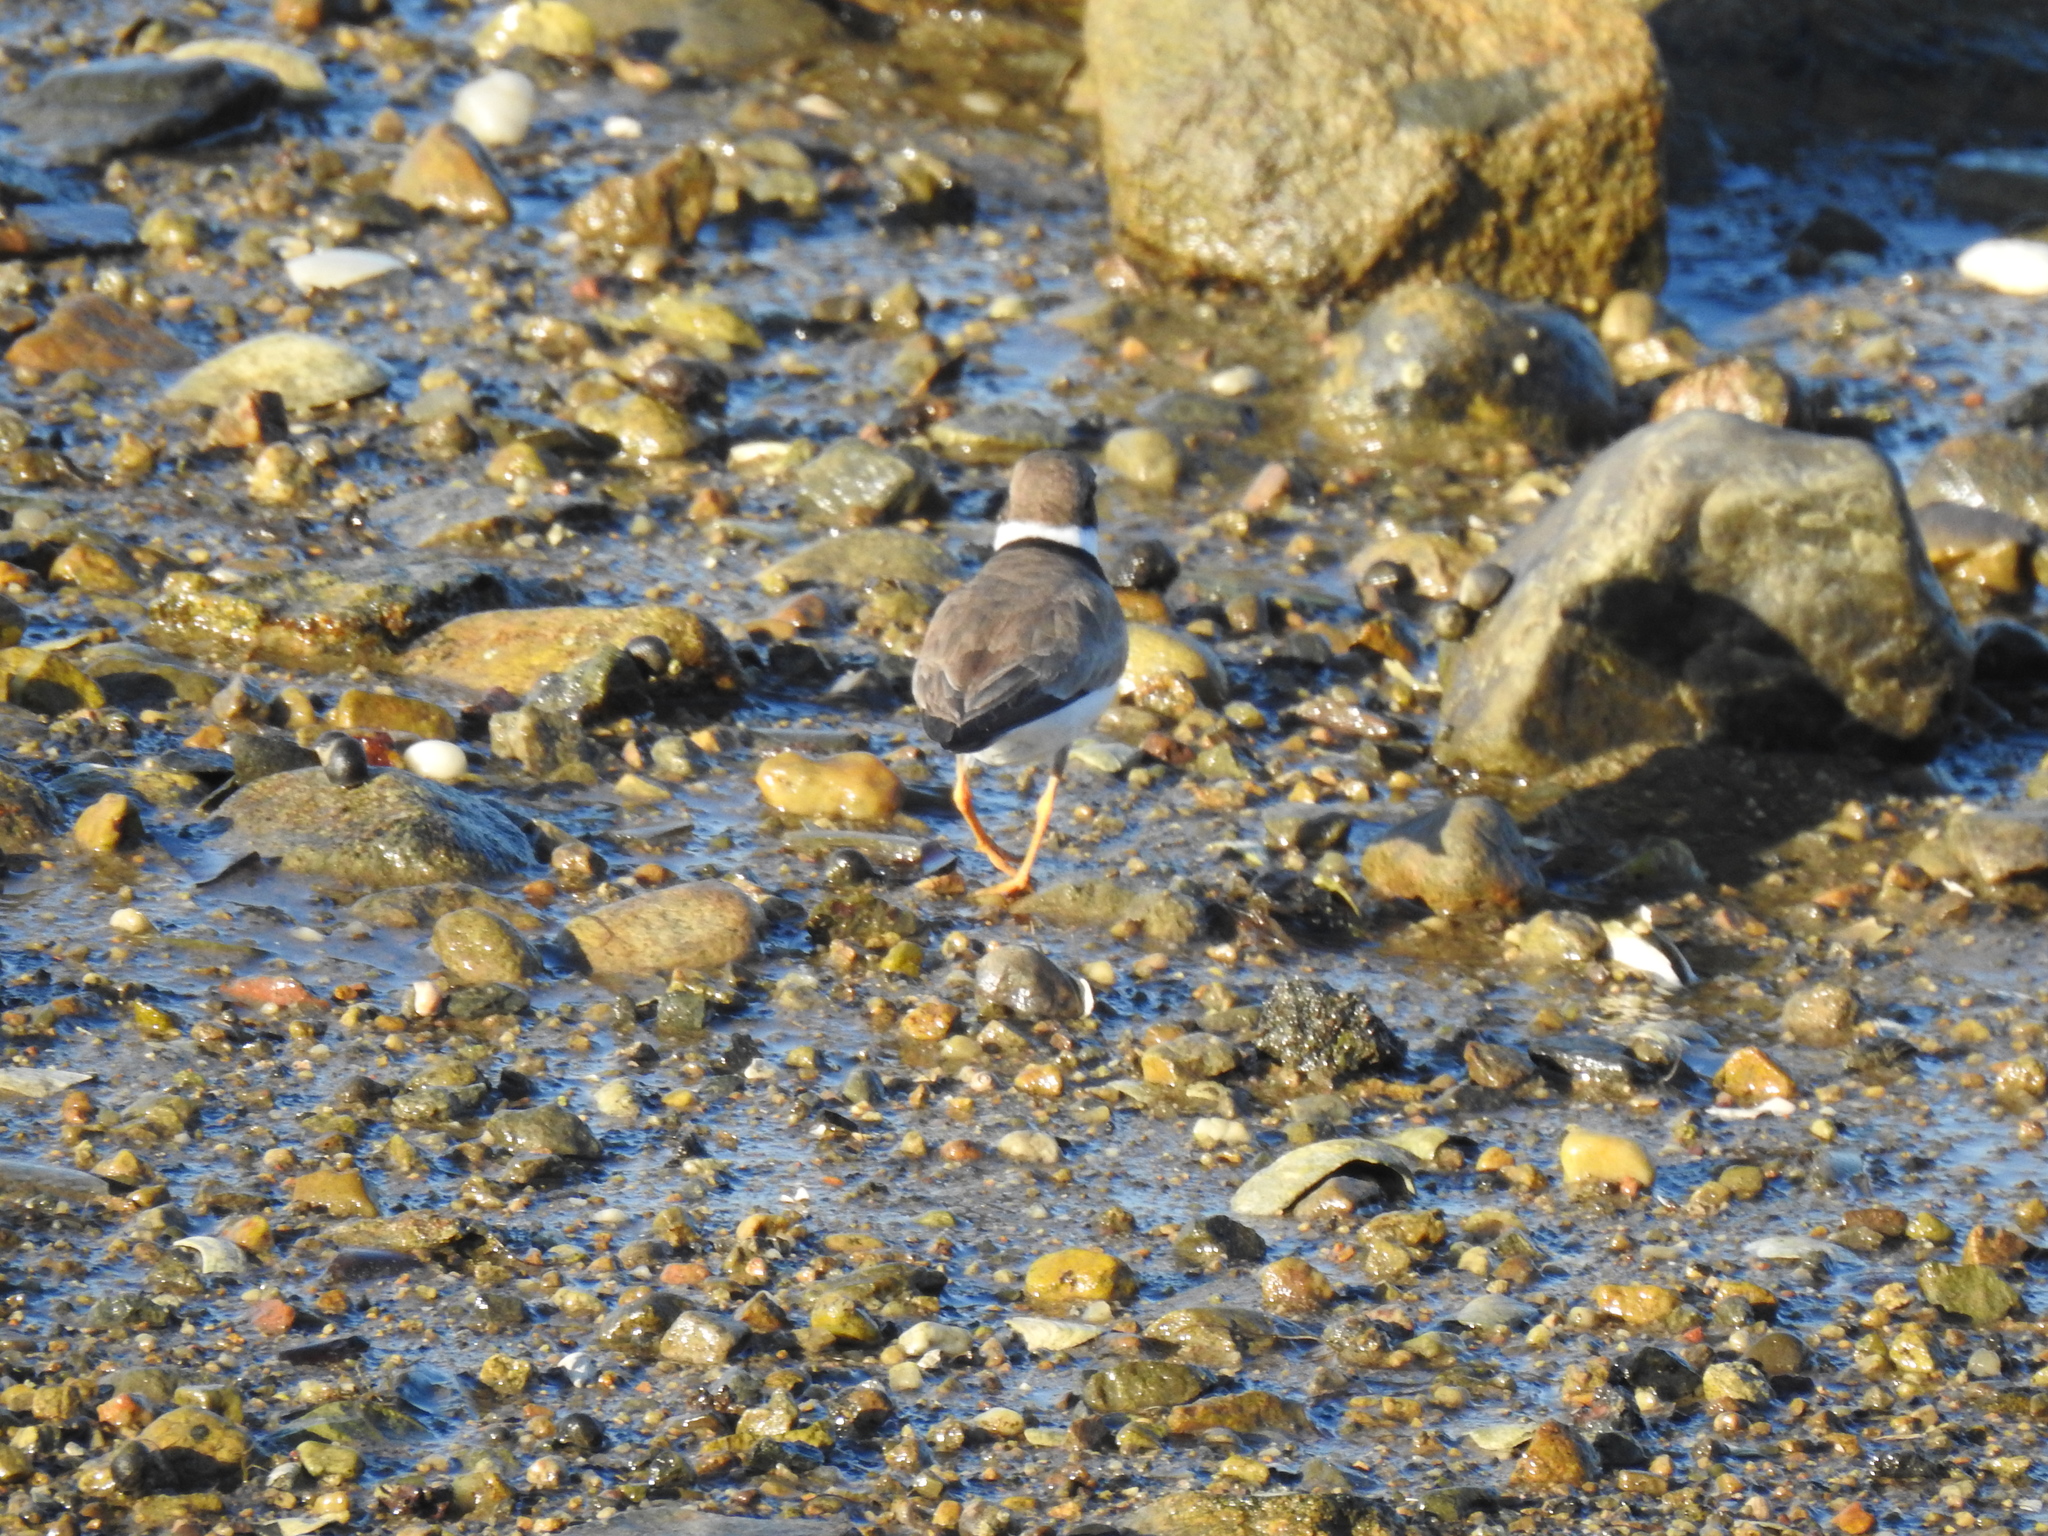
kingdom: Animalia
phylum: Chordata
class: Aves
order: Charadriiformes
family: Charadriidae
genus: Charadrius
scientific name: Charadrius semipalmatus
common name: Semipalmated plover
